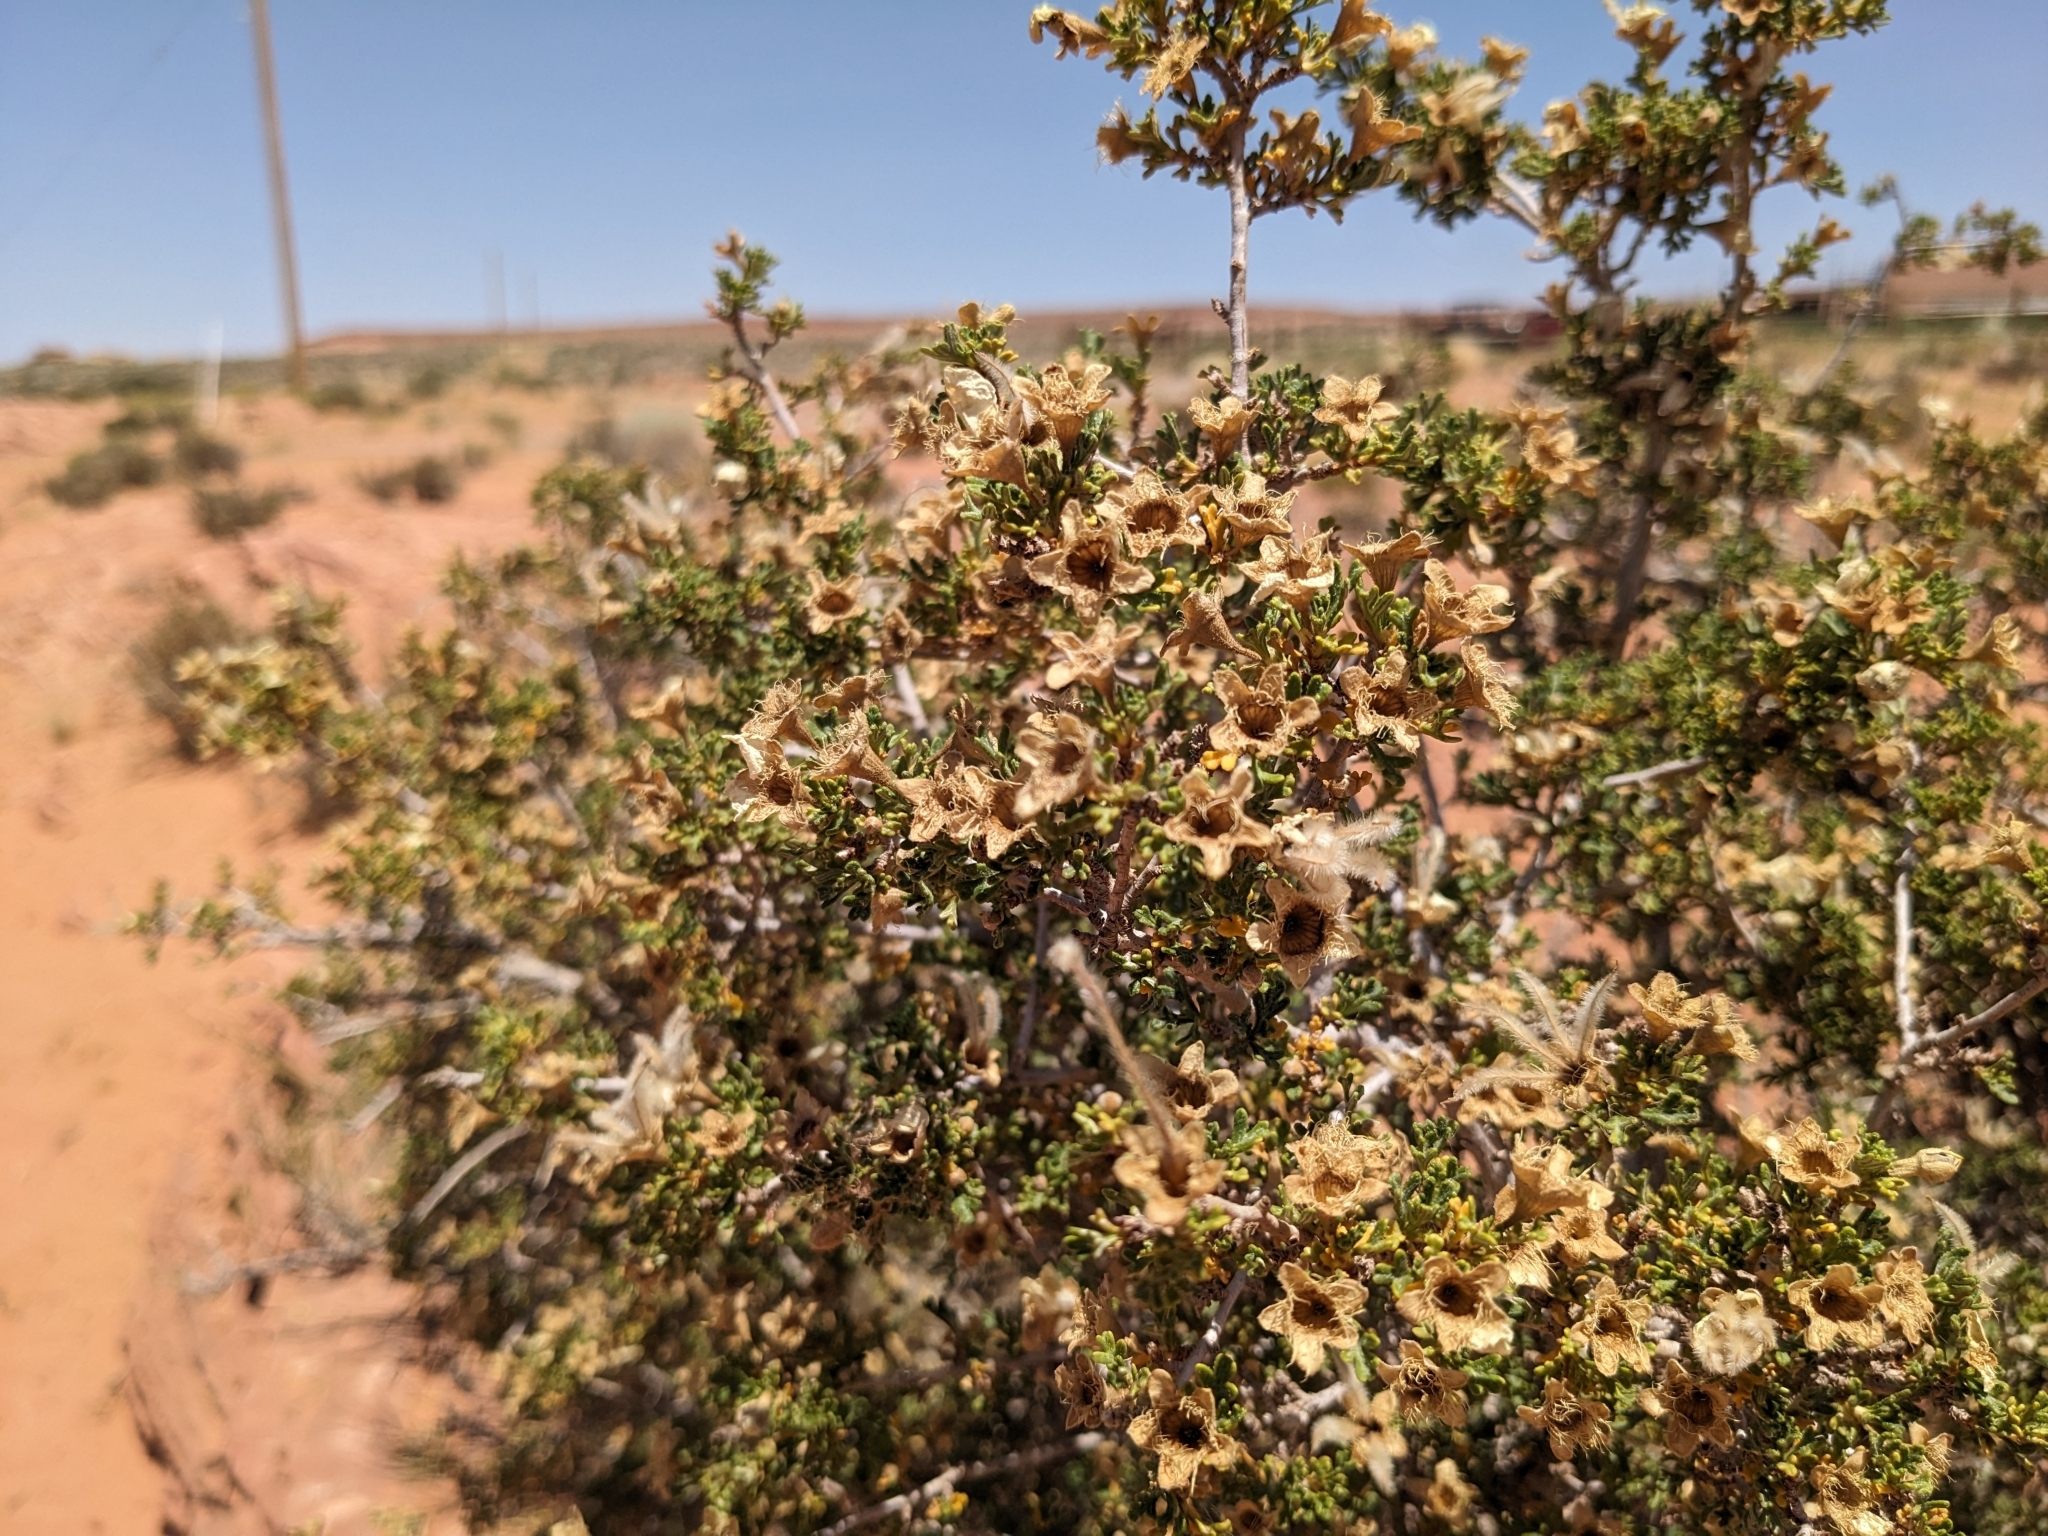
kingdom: Plantae
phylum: Tracheophyta
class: Magnoliopsida
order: Rosales
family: Rosaceae
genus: Purshia
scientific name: Purshia stansburiana
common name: Stansbury's cliffrose
